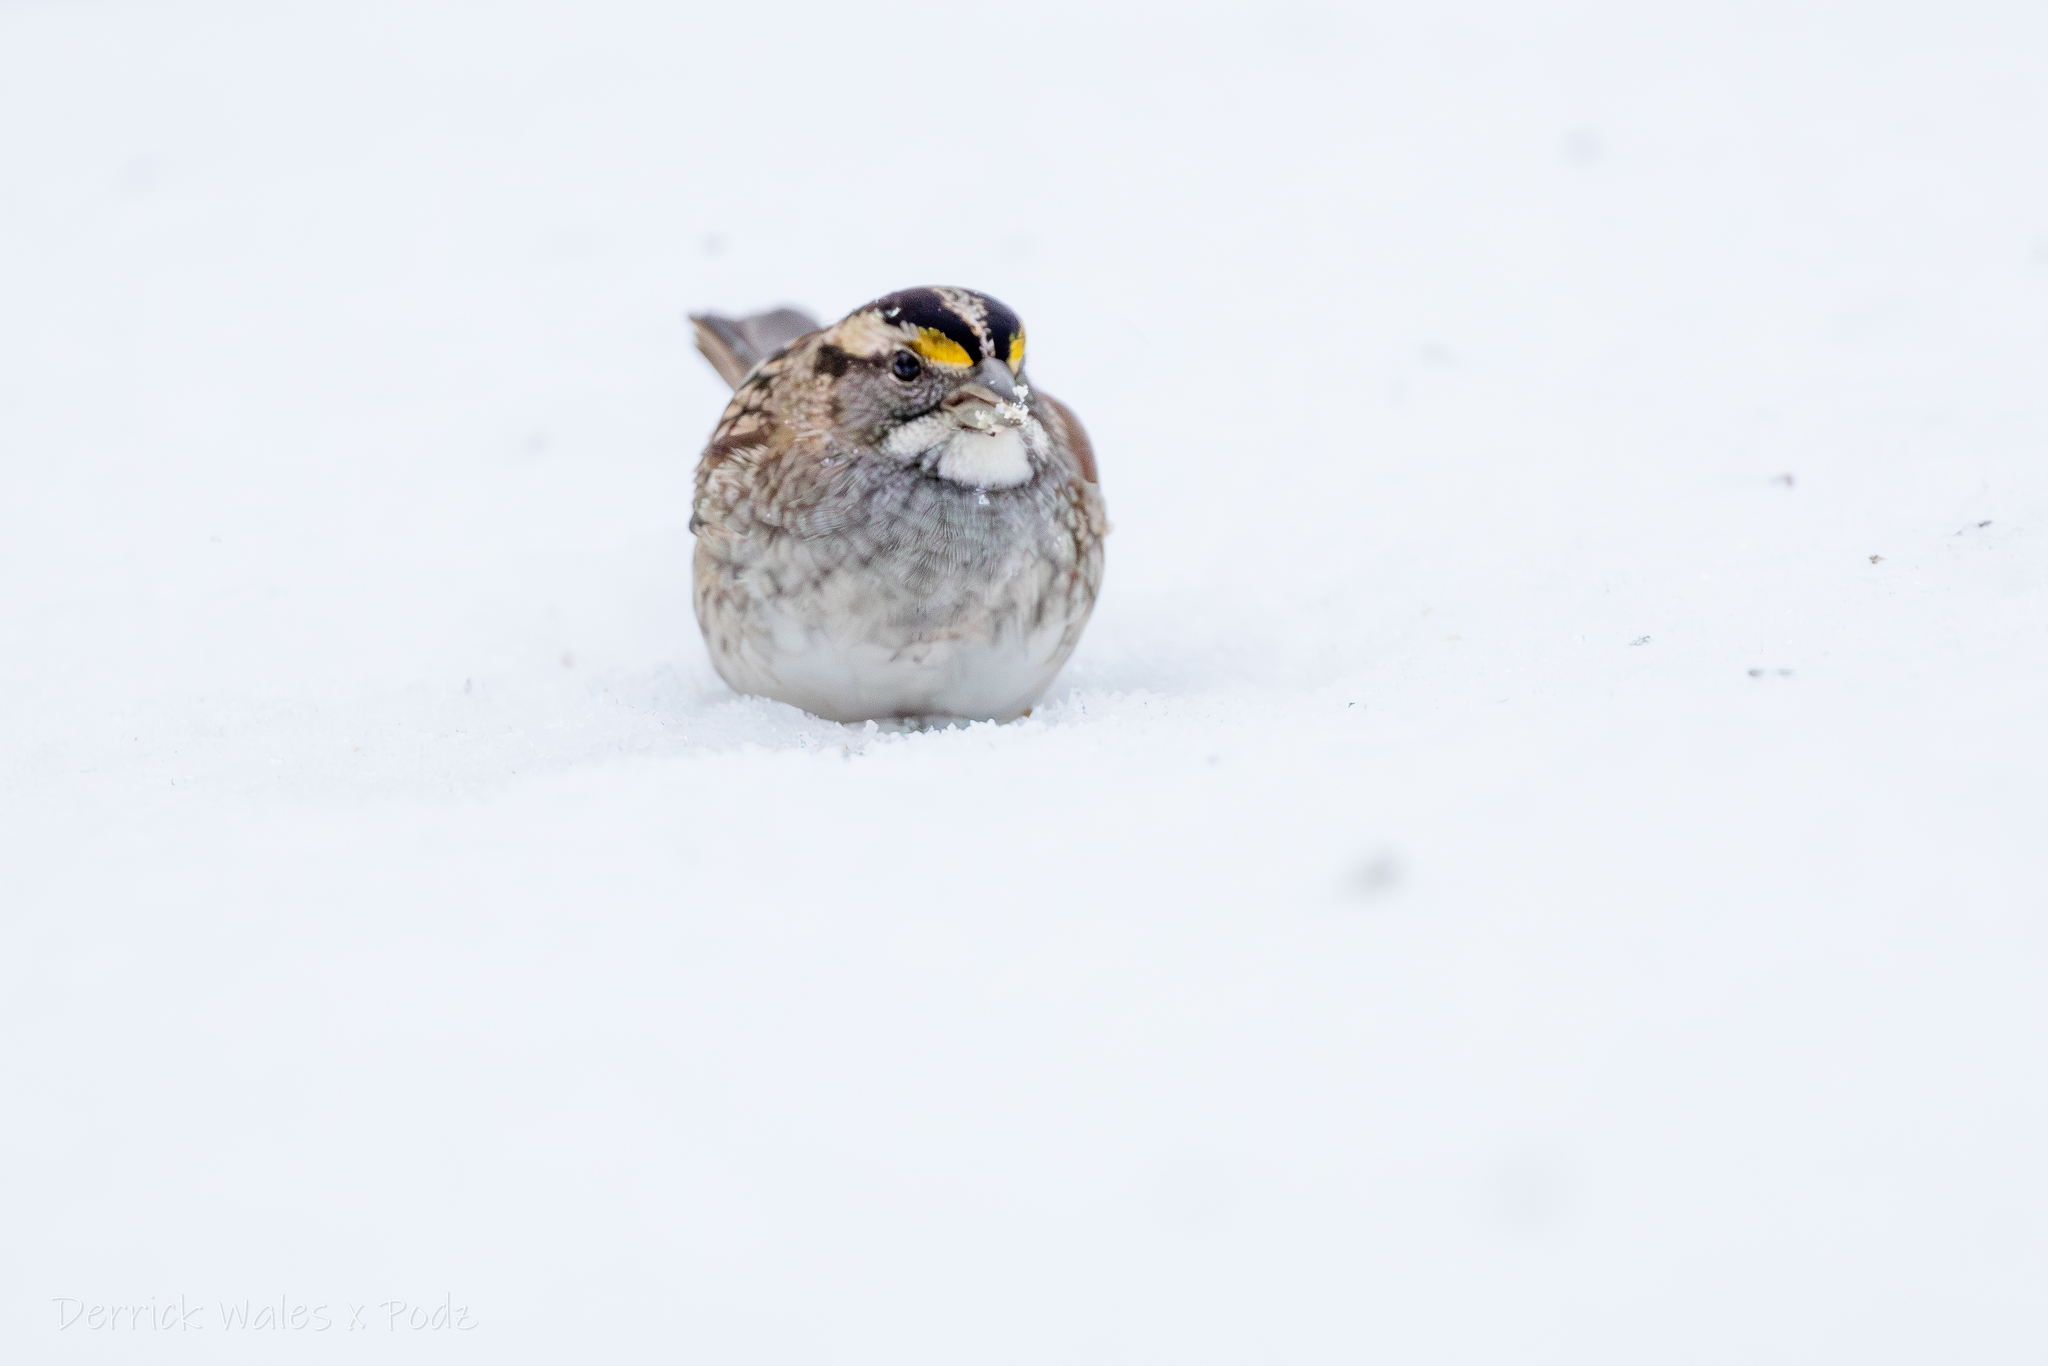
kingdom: Animalia
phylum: Chordata
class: Aves
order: Passeriformes
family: Passerellidae
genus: Zonotrichia
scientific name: Zonotrichia albicollis
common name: White-throated sparrow
